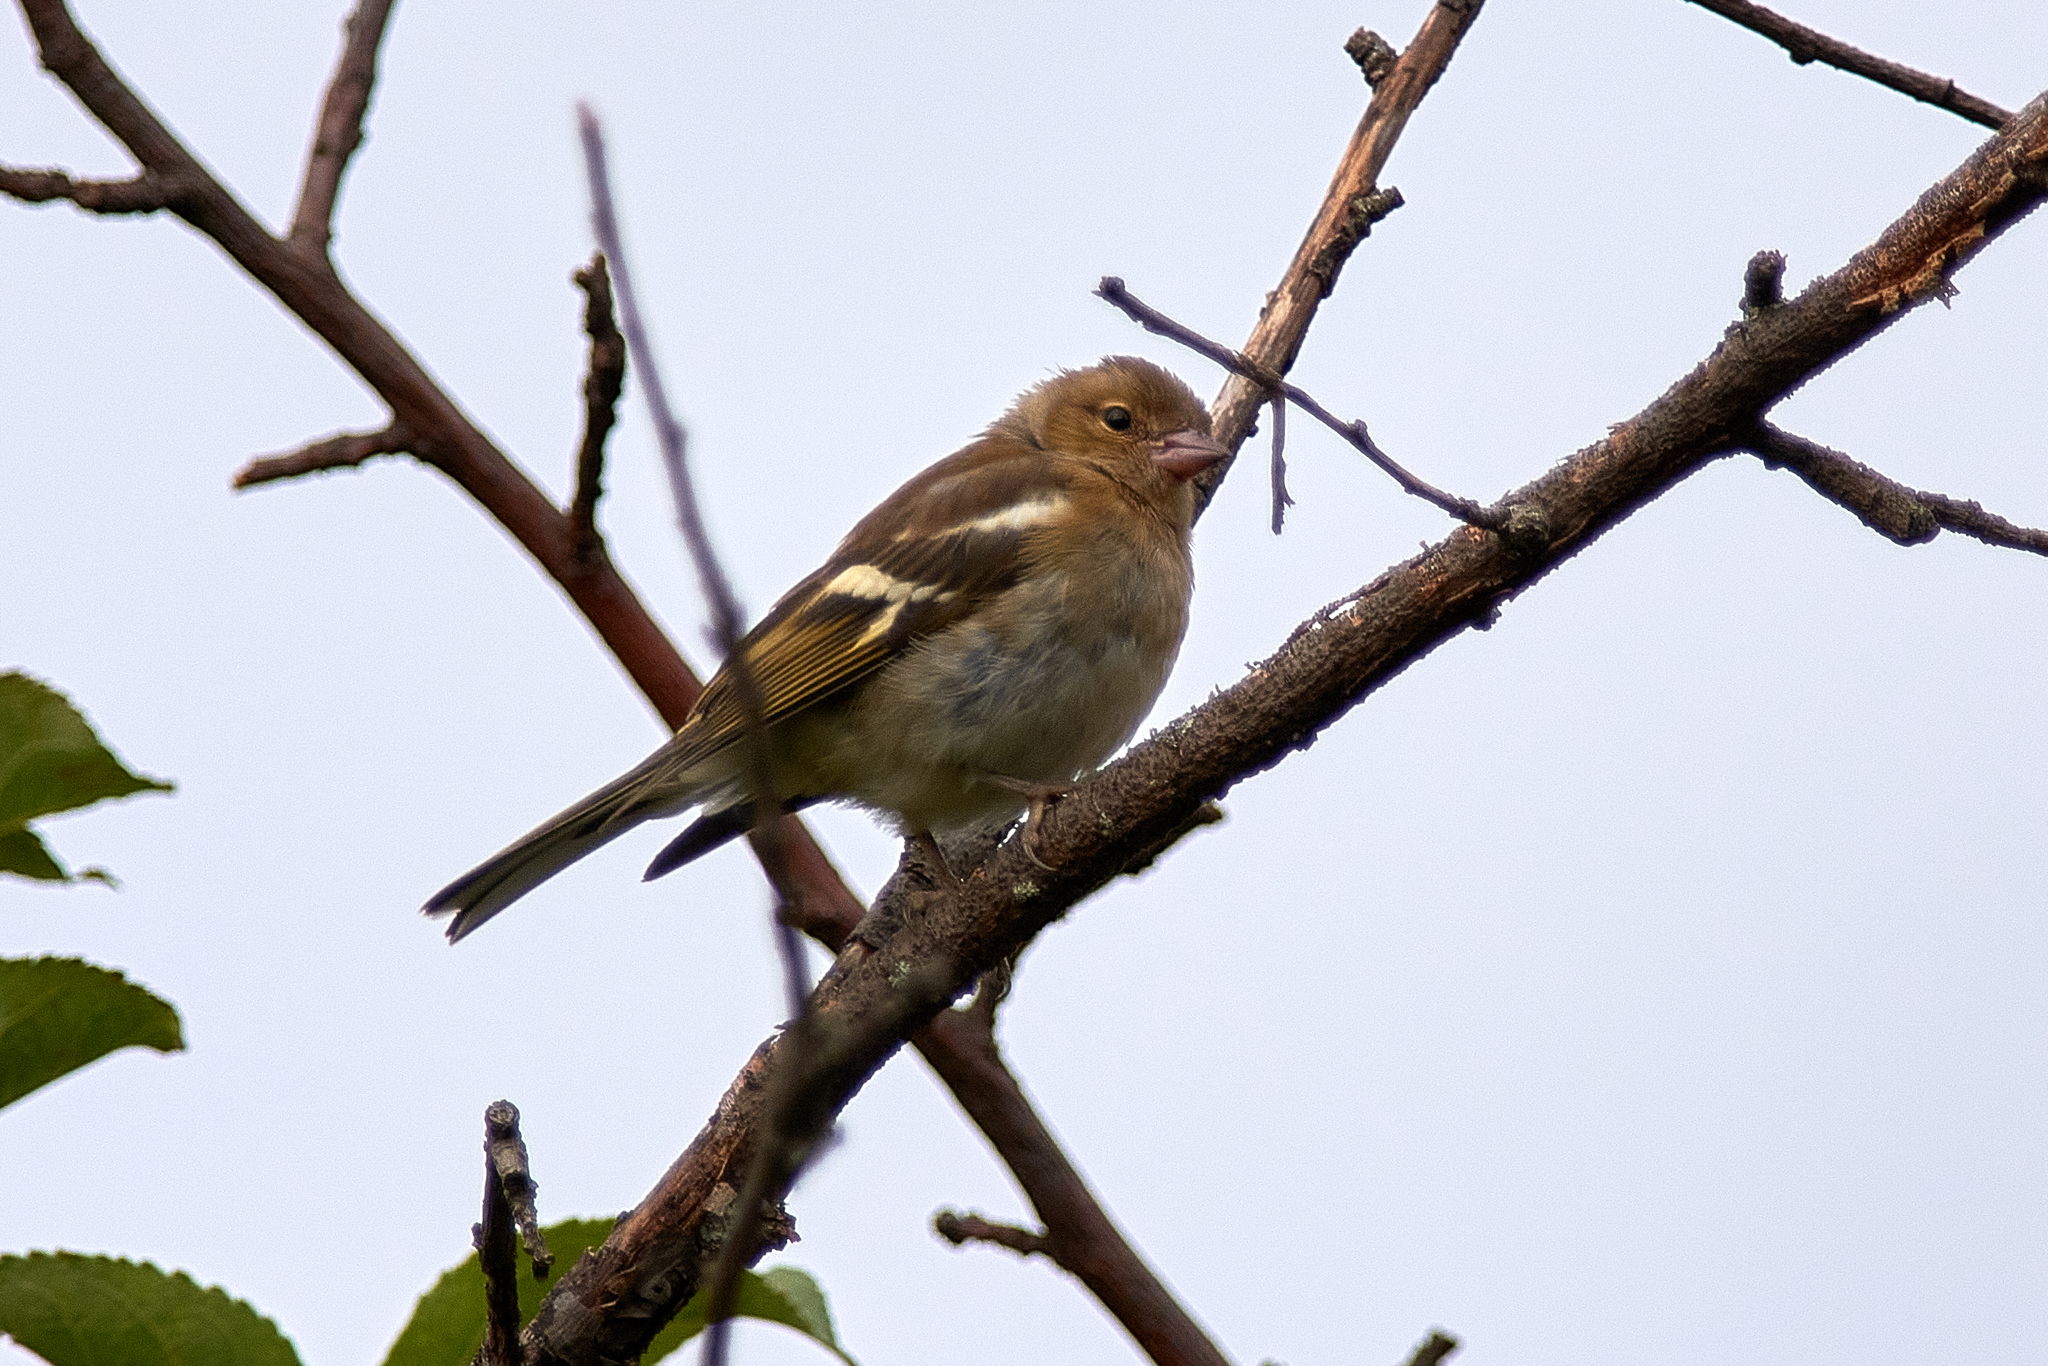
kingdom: Animalia
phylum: Chordata
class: Aves
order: Passeriformes
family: Fringillidae
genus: Fringilla
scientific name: Fringilla coelebs
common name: Common chaffinch
